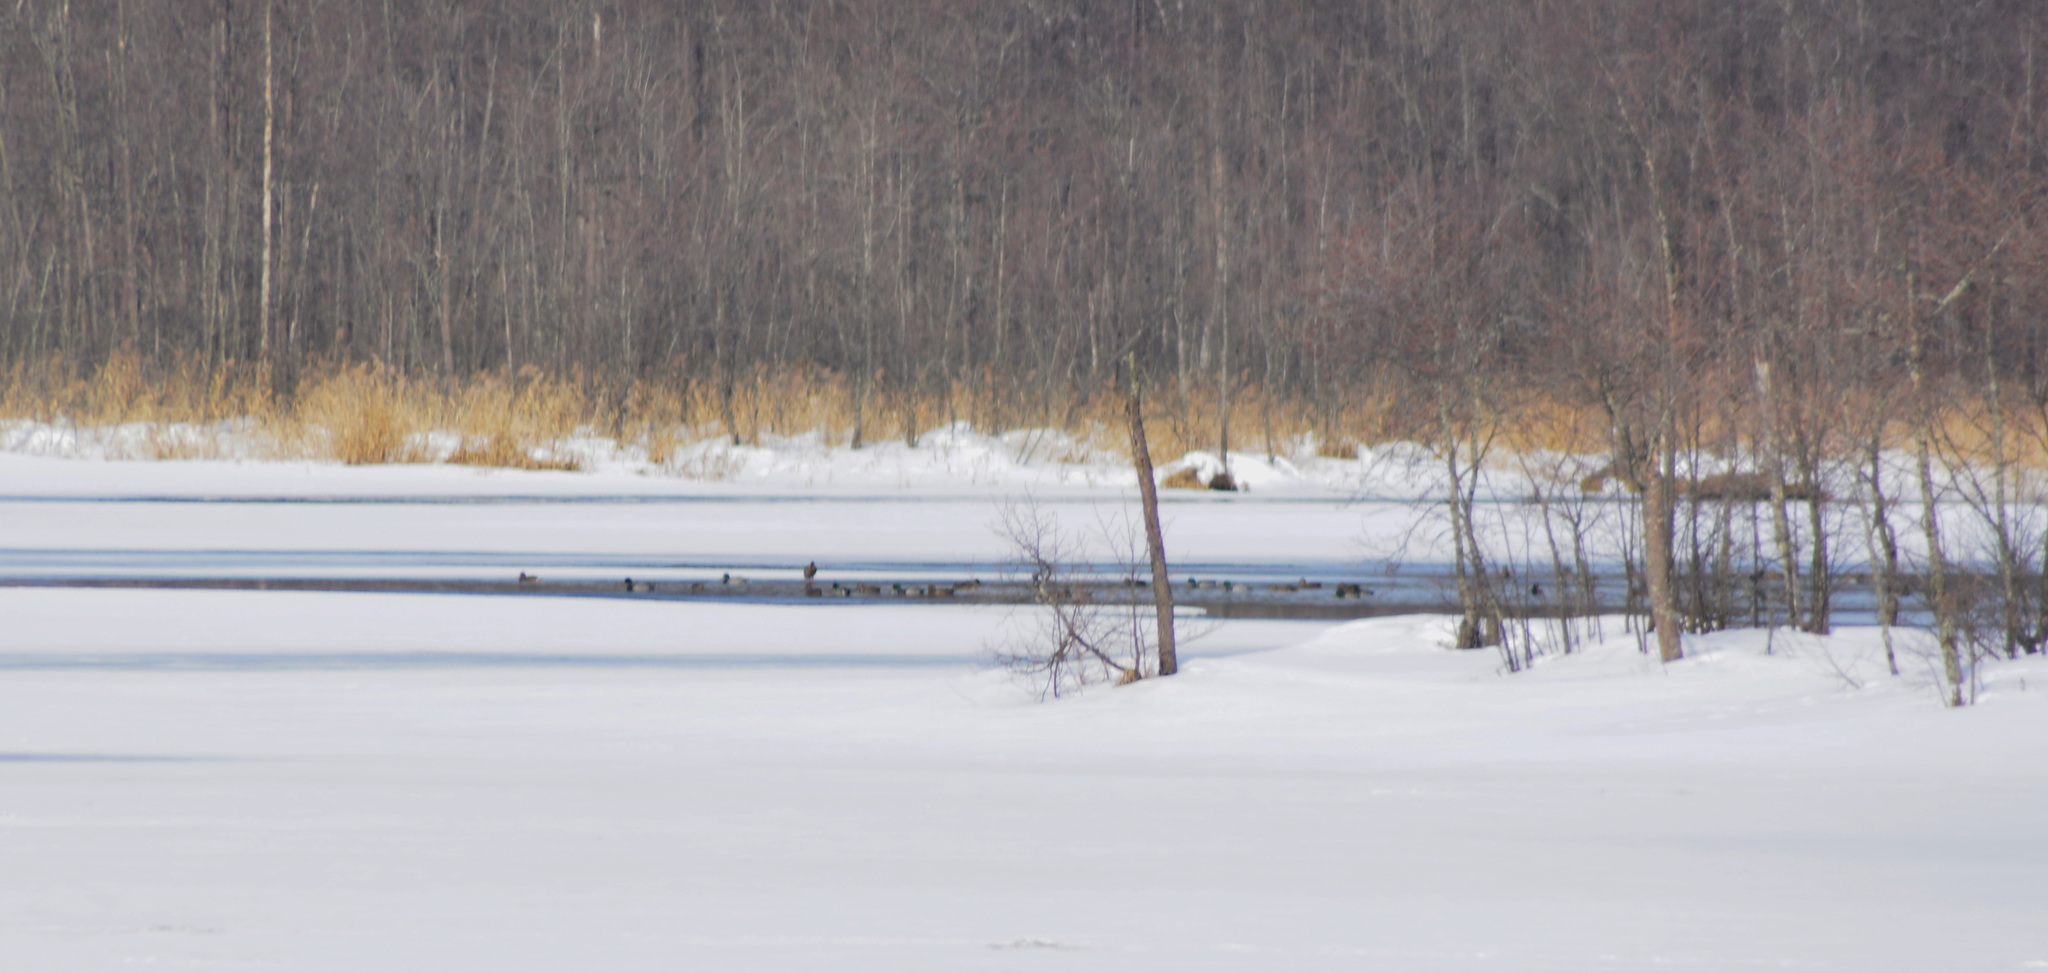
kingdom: Animalia
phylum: Chordata
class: Aves
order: Anseriformes
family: Anatidae
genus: Anas
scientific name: Anas platyrhynchos
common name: Mallard
